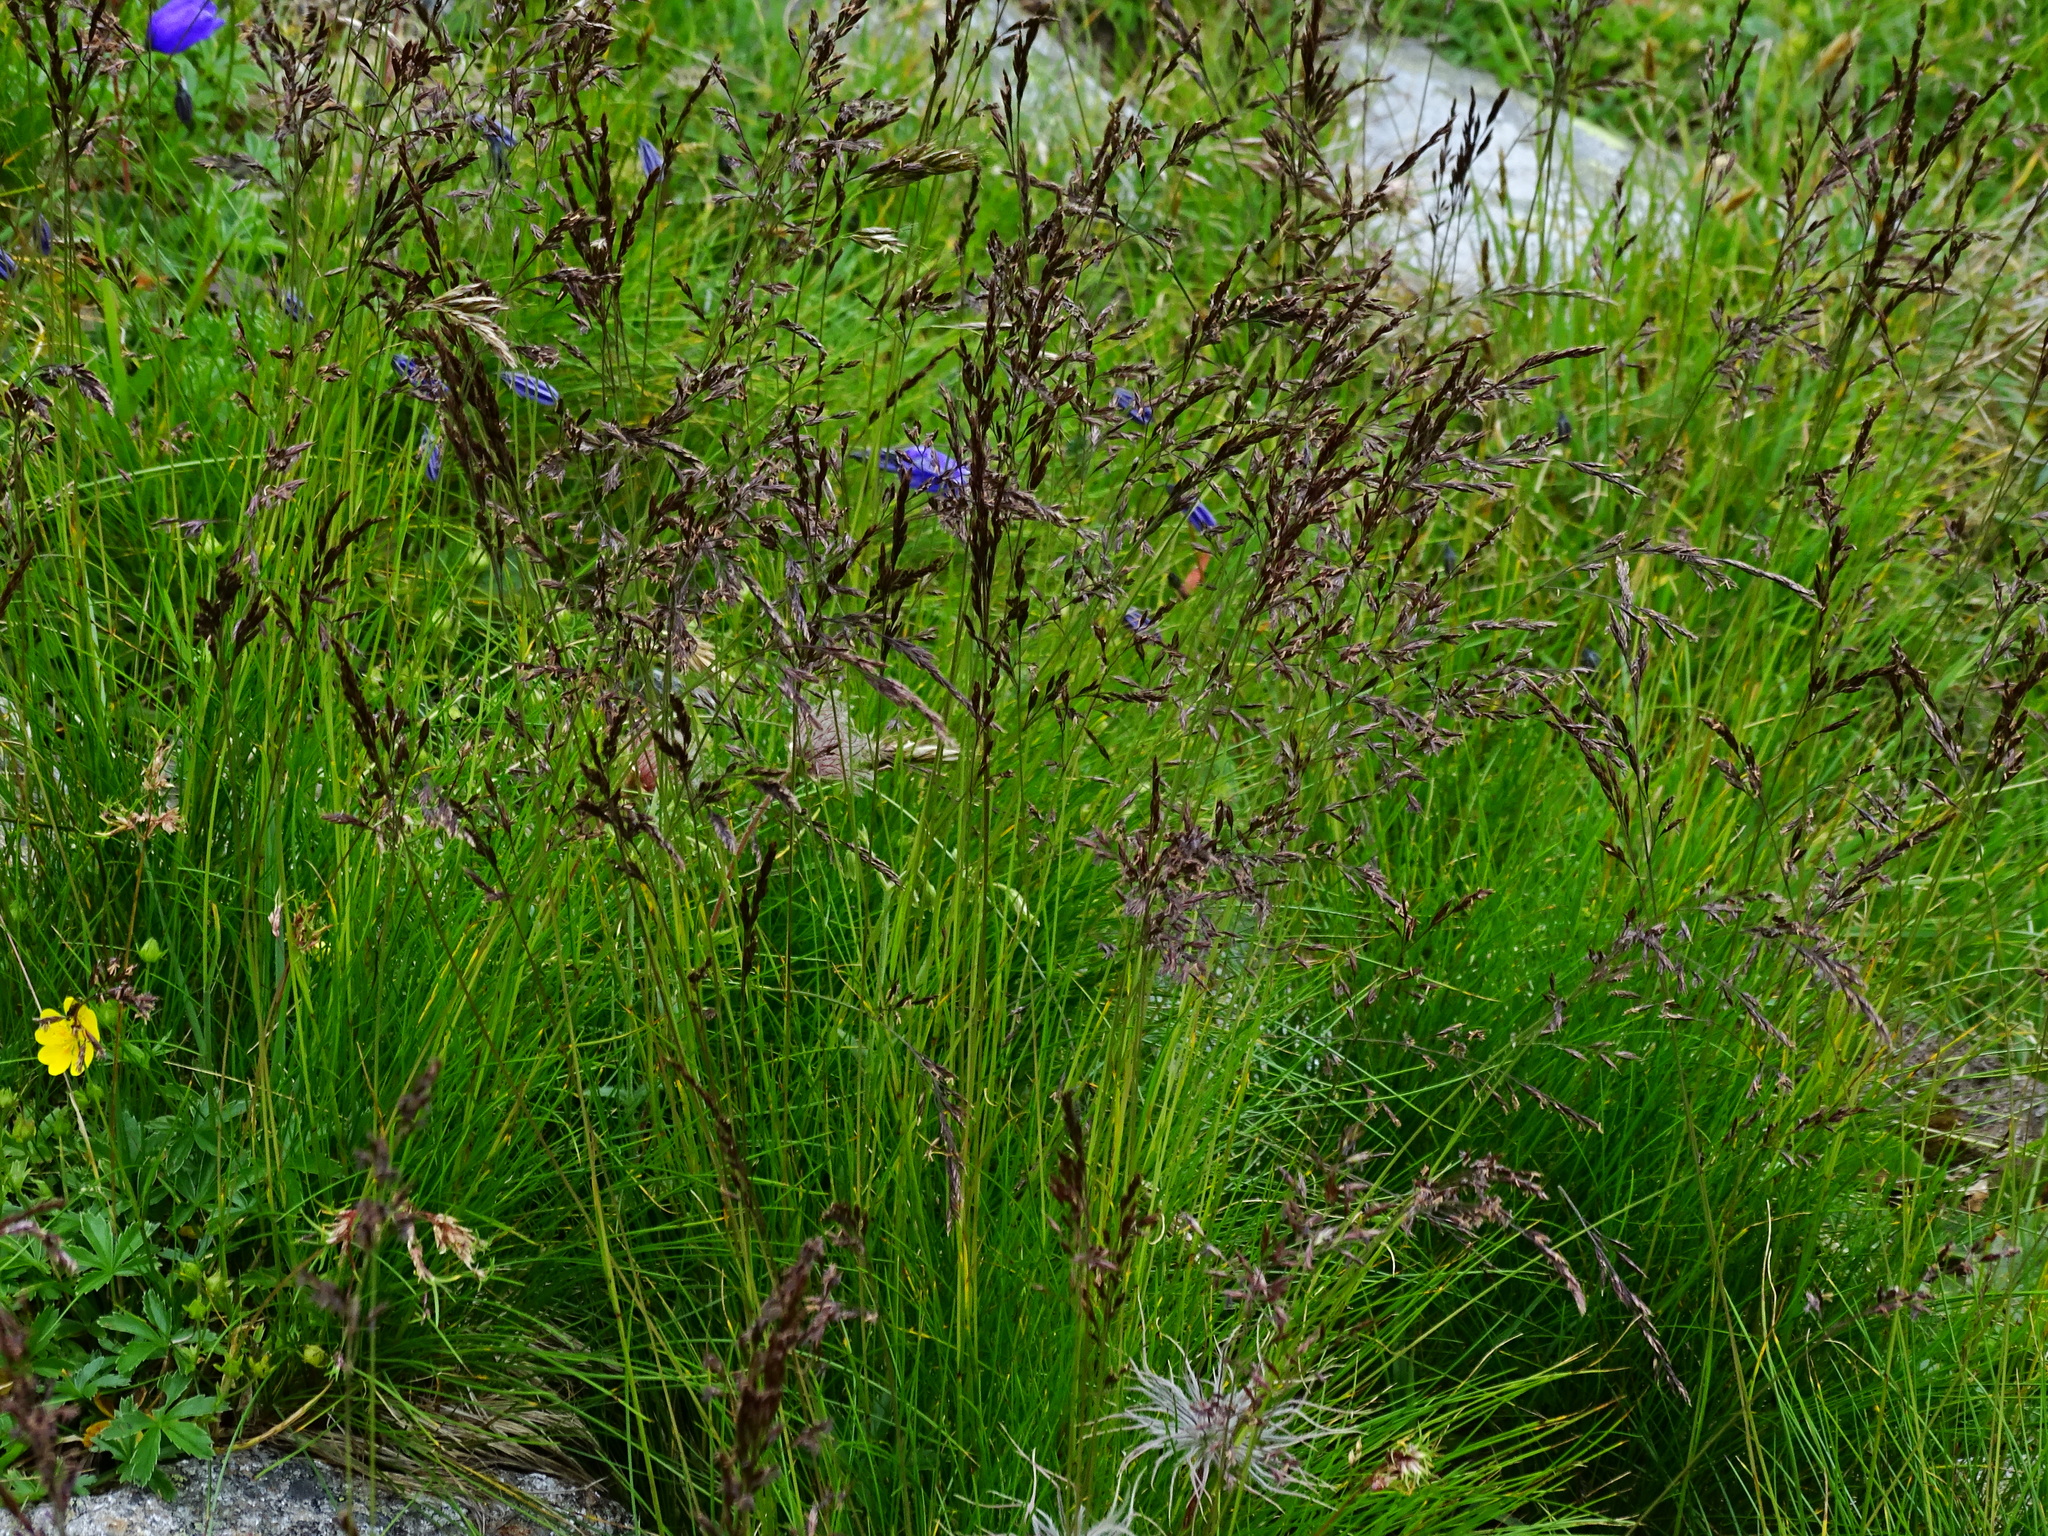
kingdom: Plantae
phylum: Tracheophyta
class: Liliopsida
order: Poales
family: Poaceae
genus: Festuca
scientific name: Festuca picturata
